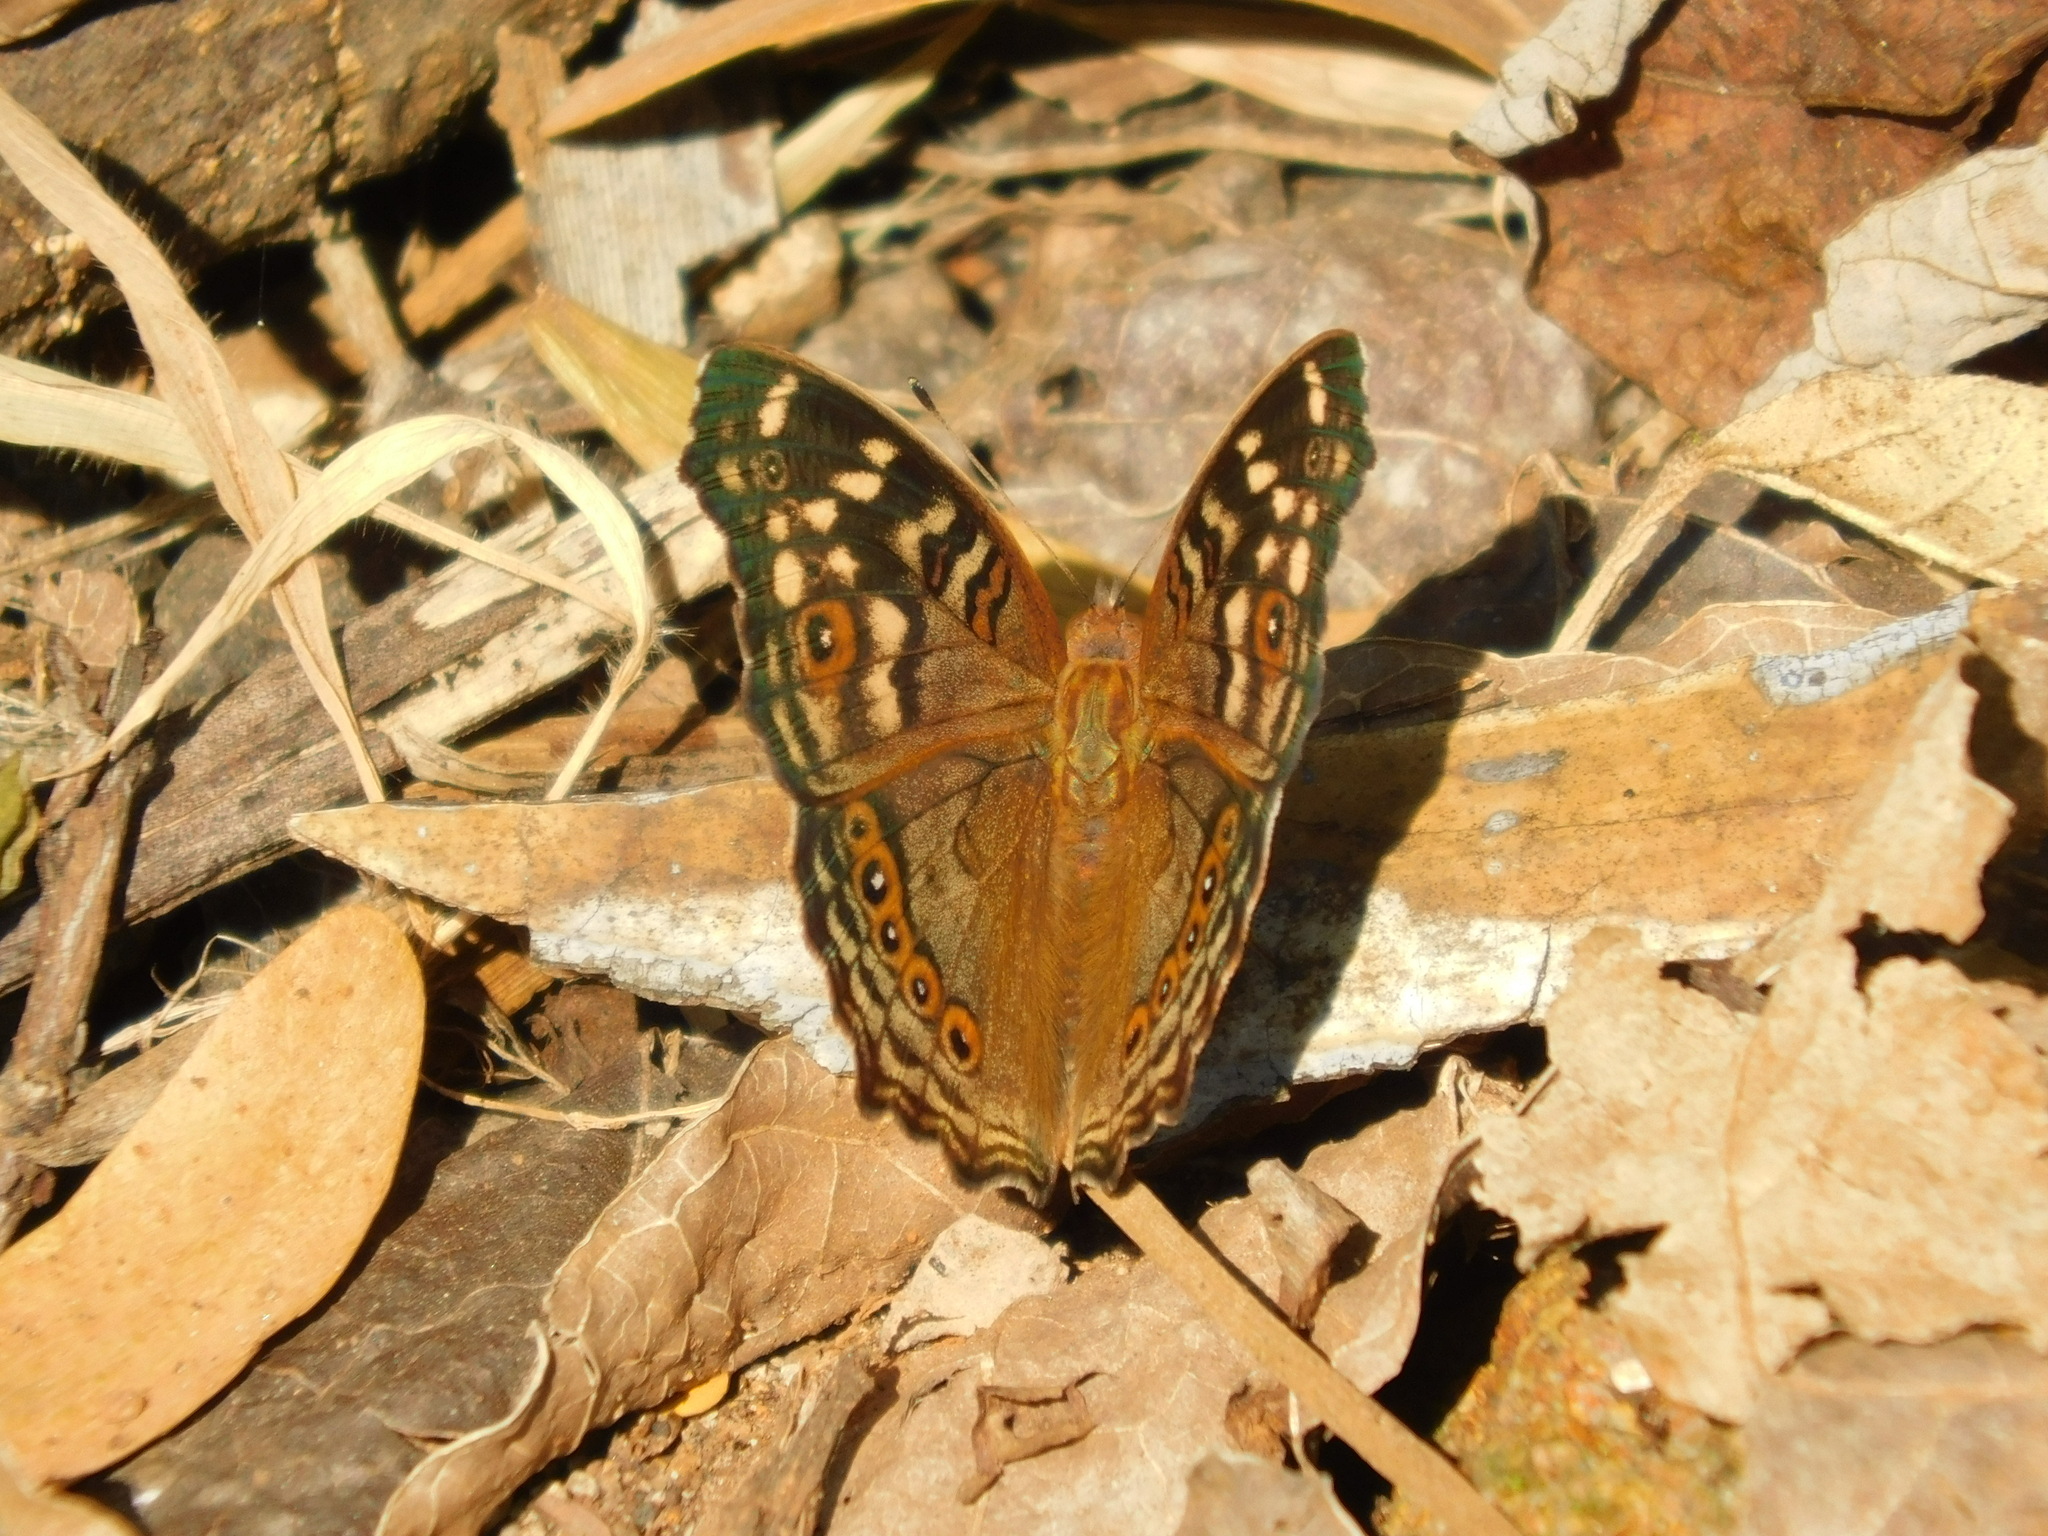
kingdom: Animalia
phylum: Arthropoda
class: Insecta
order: Lepidoptera
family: Nymphalidae
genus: Junonia
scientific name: Junonia erigone
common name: Northern argus
